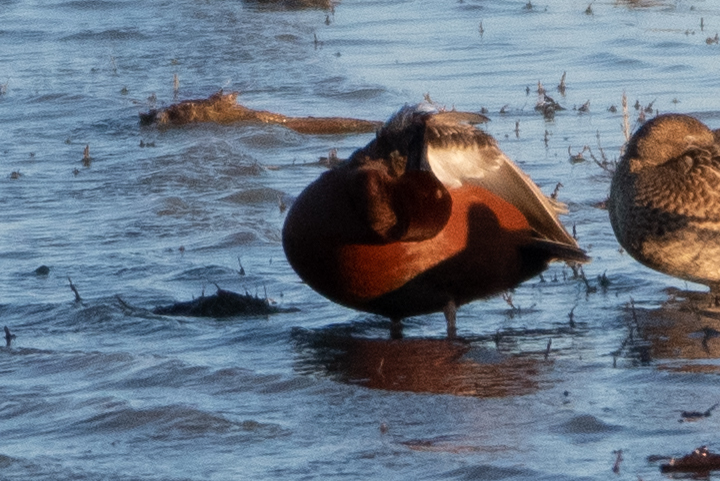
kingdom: Animalia
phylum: Chordata
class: Aves
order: Anseriformes
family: Anatidae
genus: Spatula
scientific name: Spatula cyanoptera
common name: Cinnamon teal
